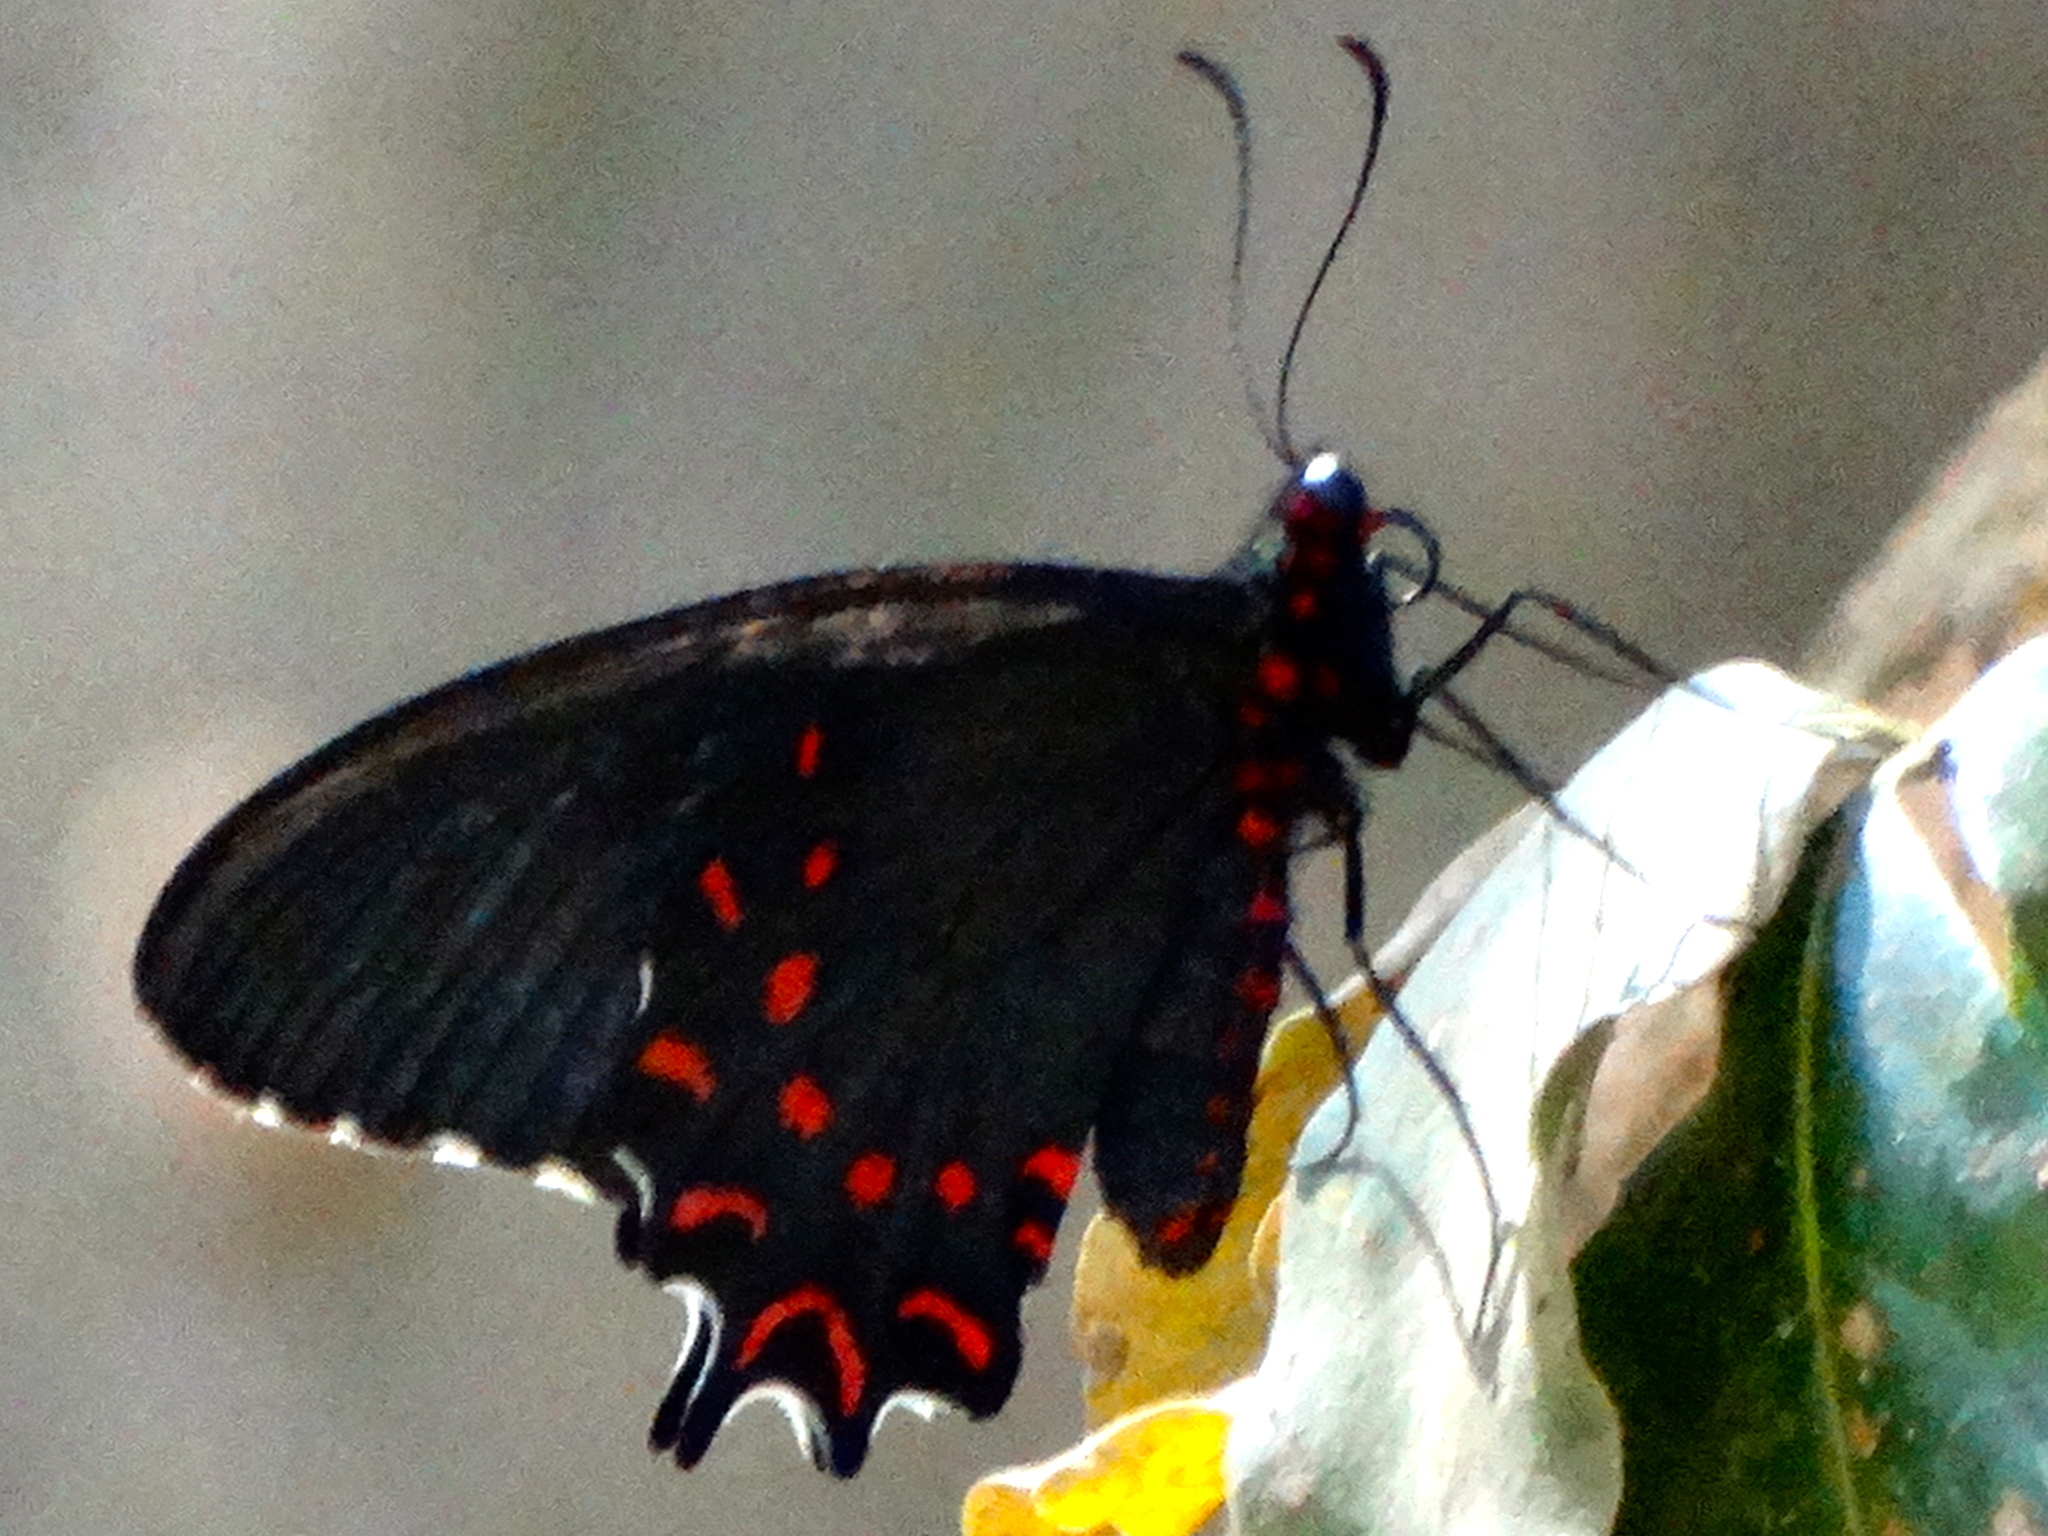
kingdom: Animalia
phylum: Arthropoda
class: Insecta
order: Lepidoptera
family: Papilionidae
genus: Parides
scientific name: Parides photinus
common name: Pink-spotted cattleheart
